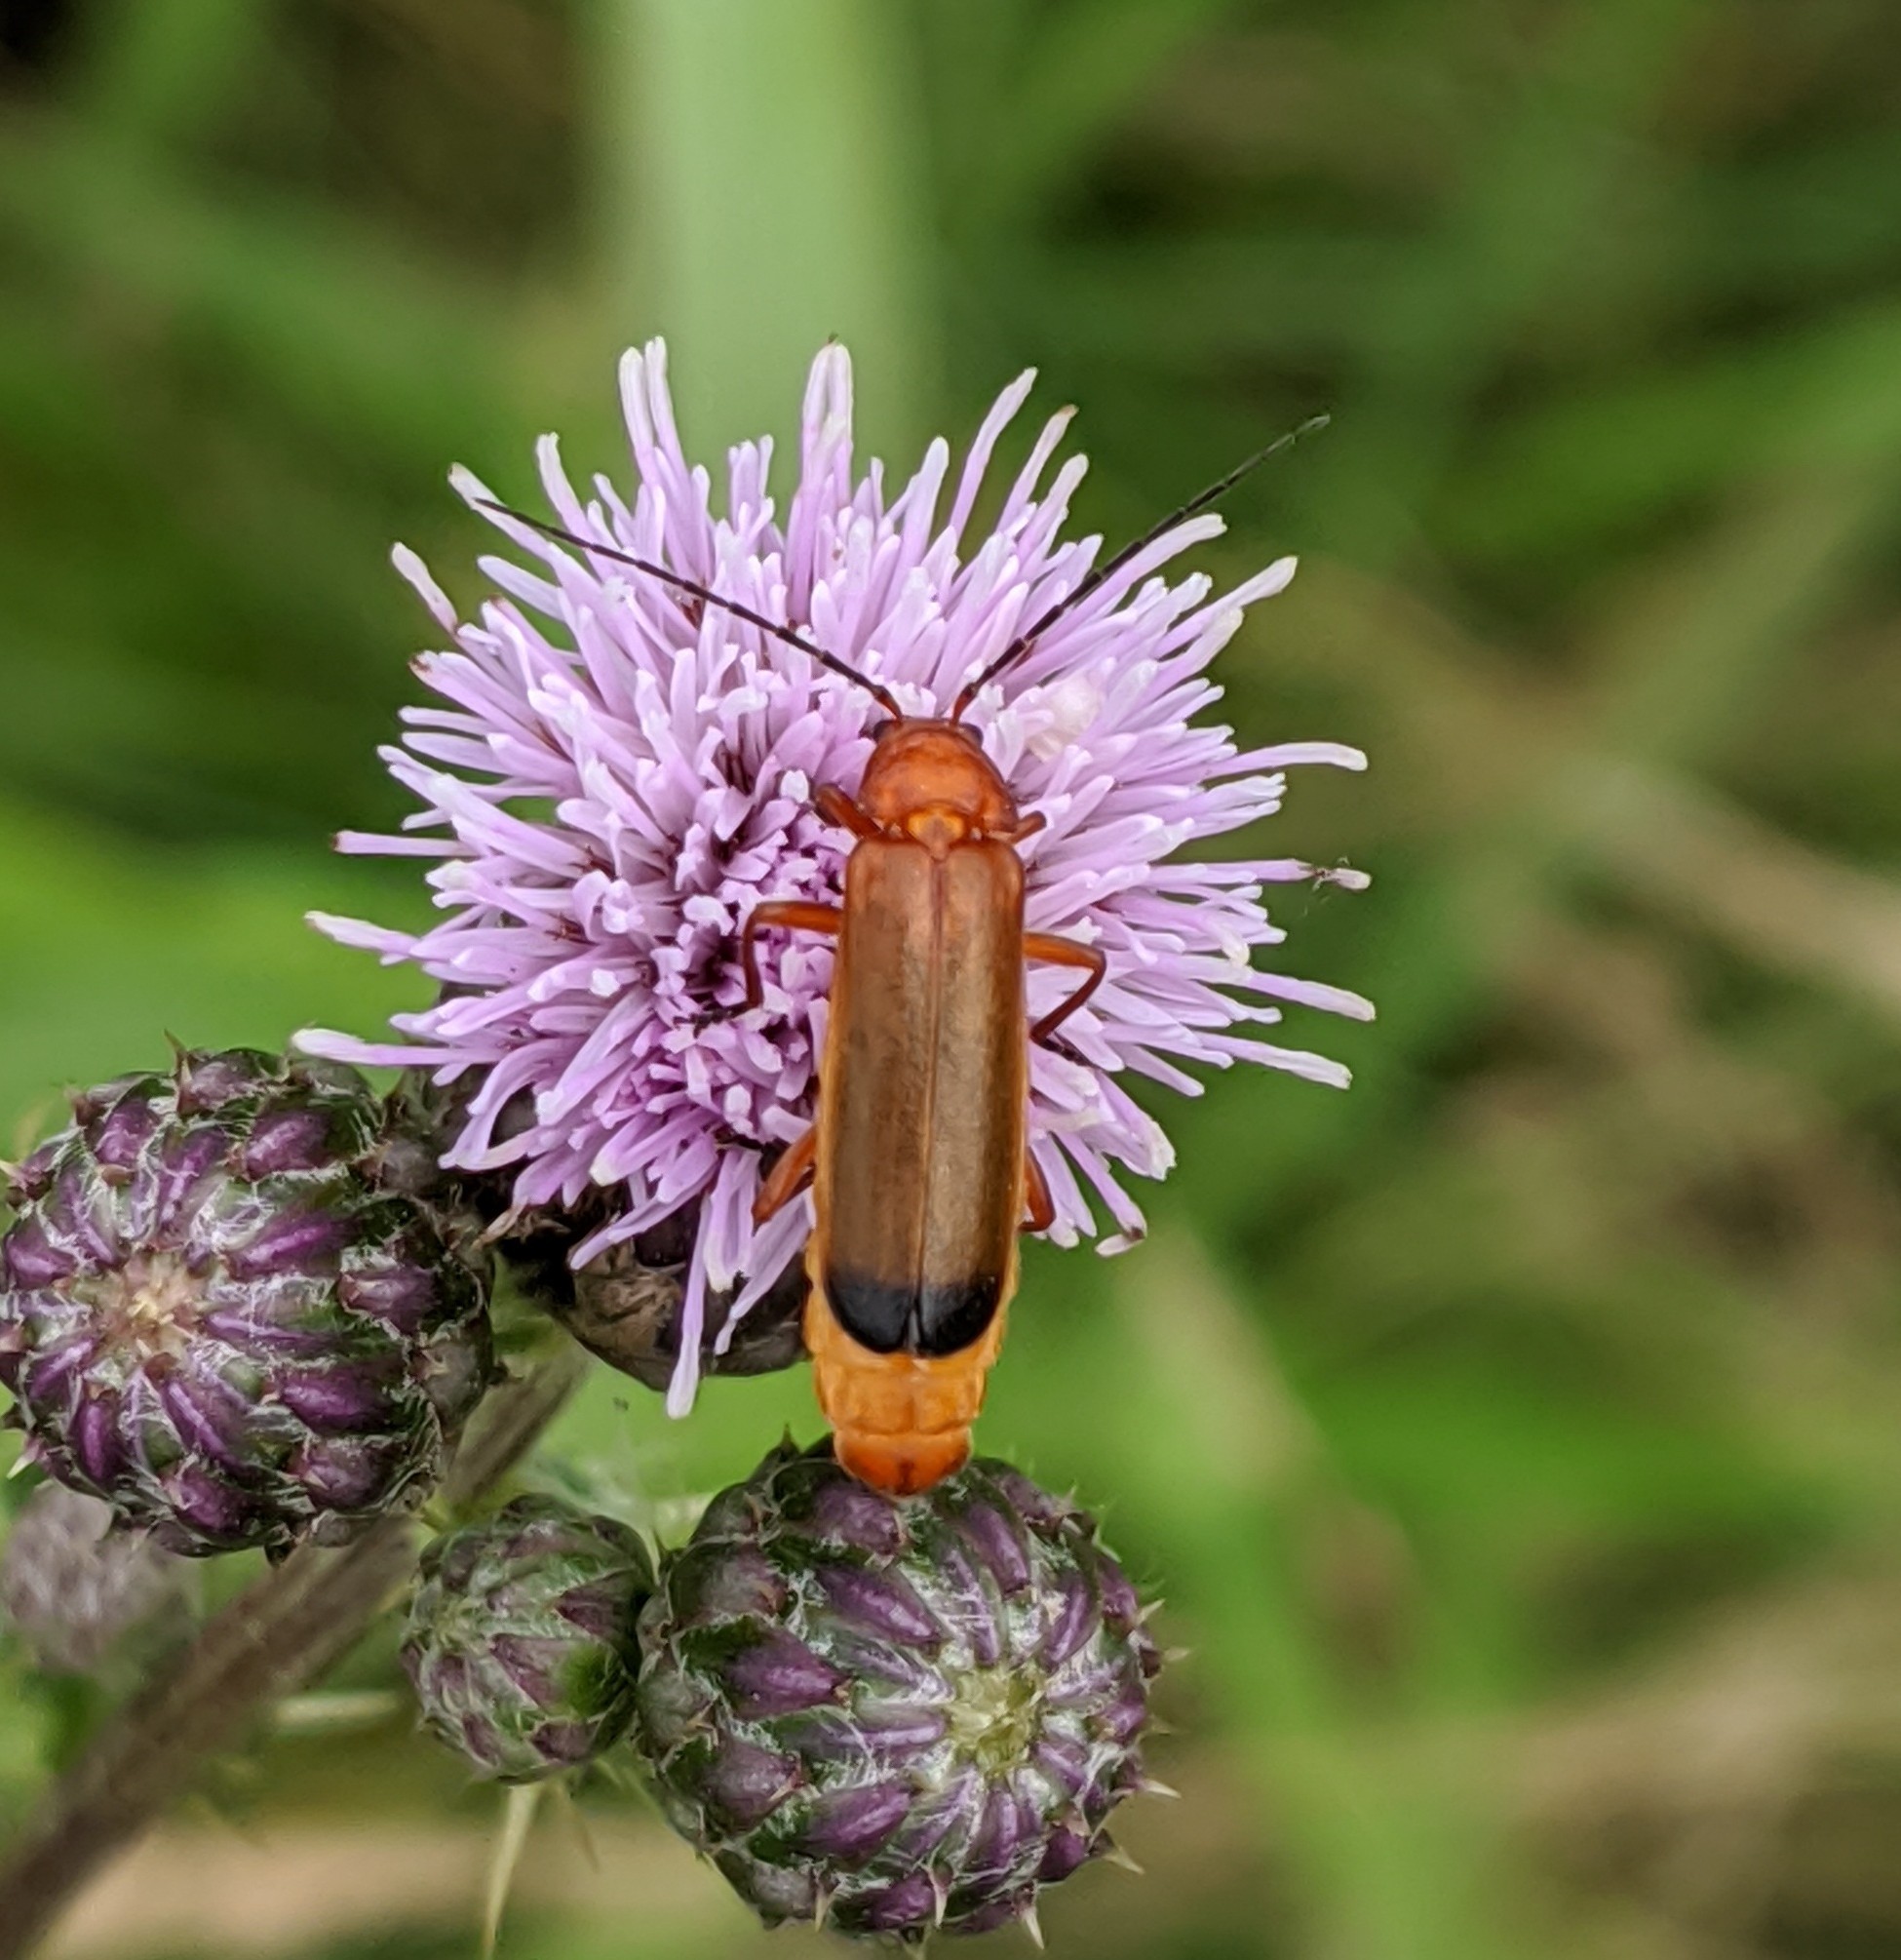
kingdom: Animalia
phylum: Arthropoda
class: Insecta
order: Coleoptera
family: Cantharidae
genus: Rhagonycha
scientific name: Rhagonycha fulva
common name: Common red soldier beetle
